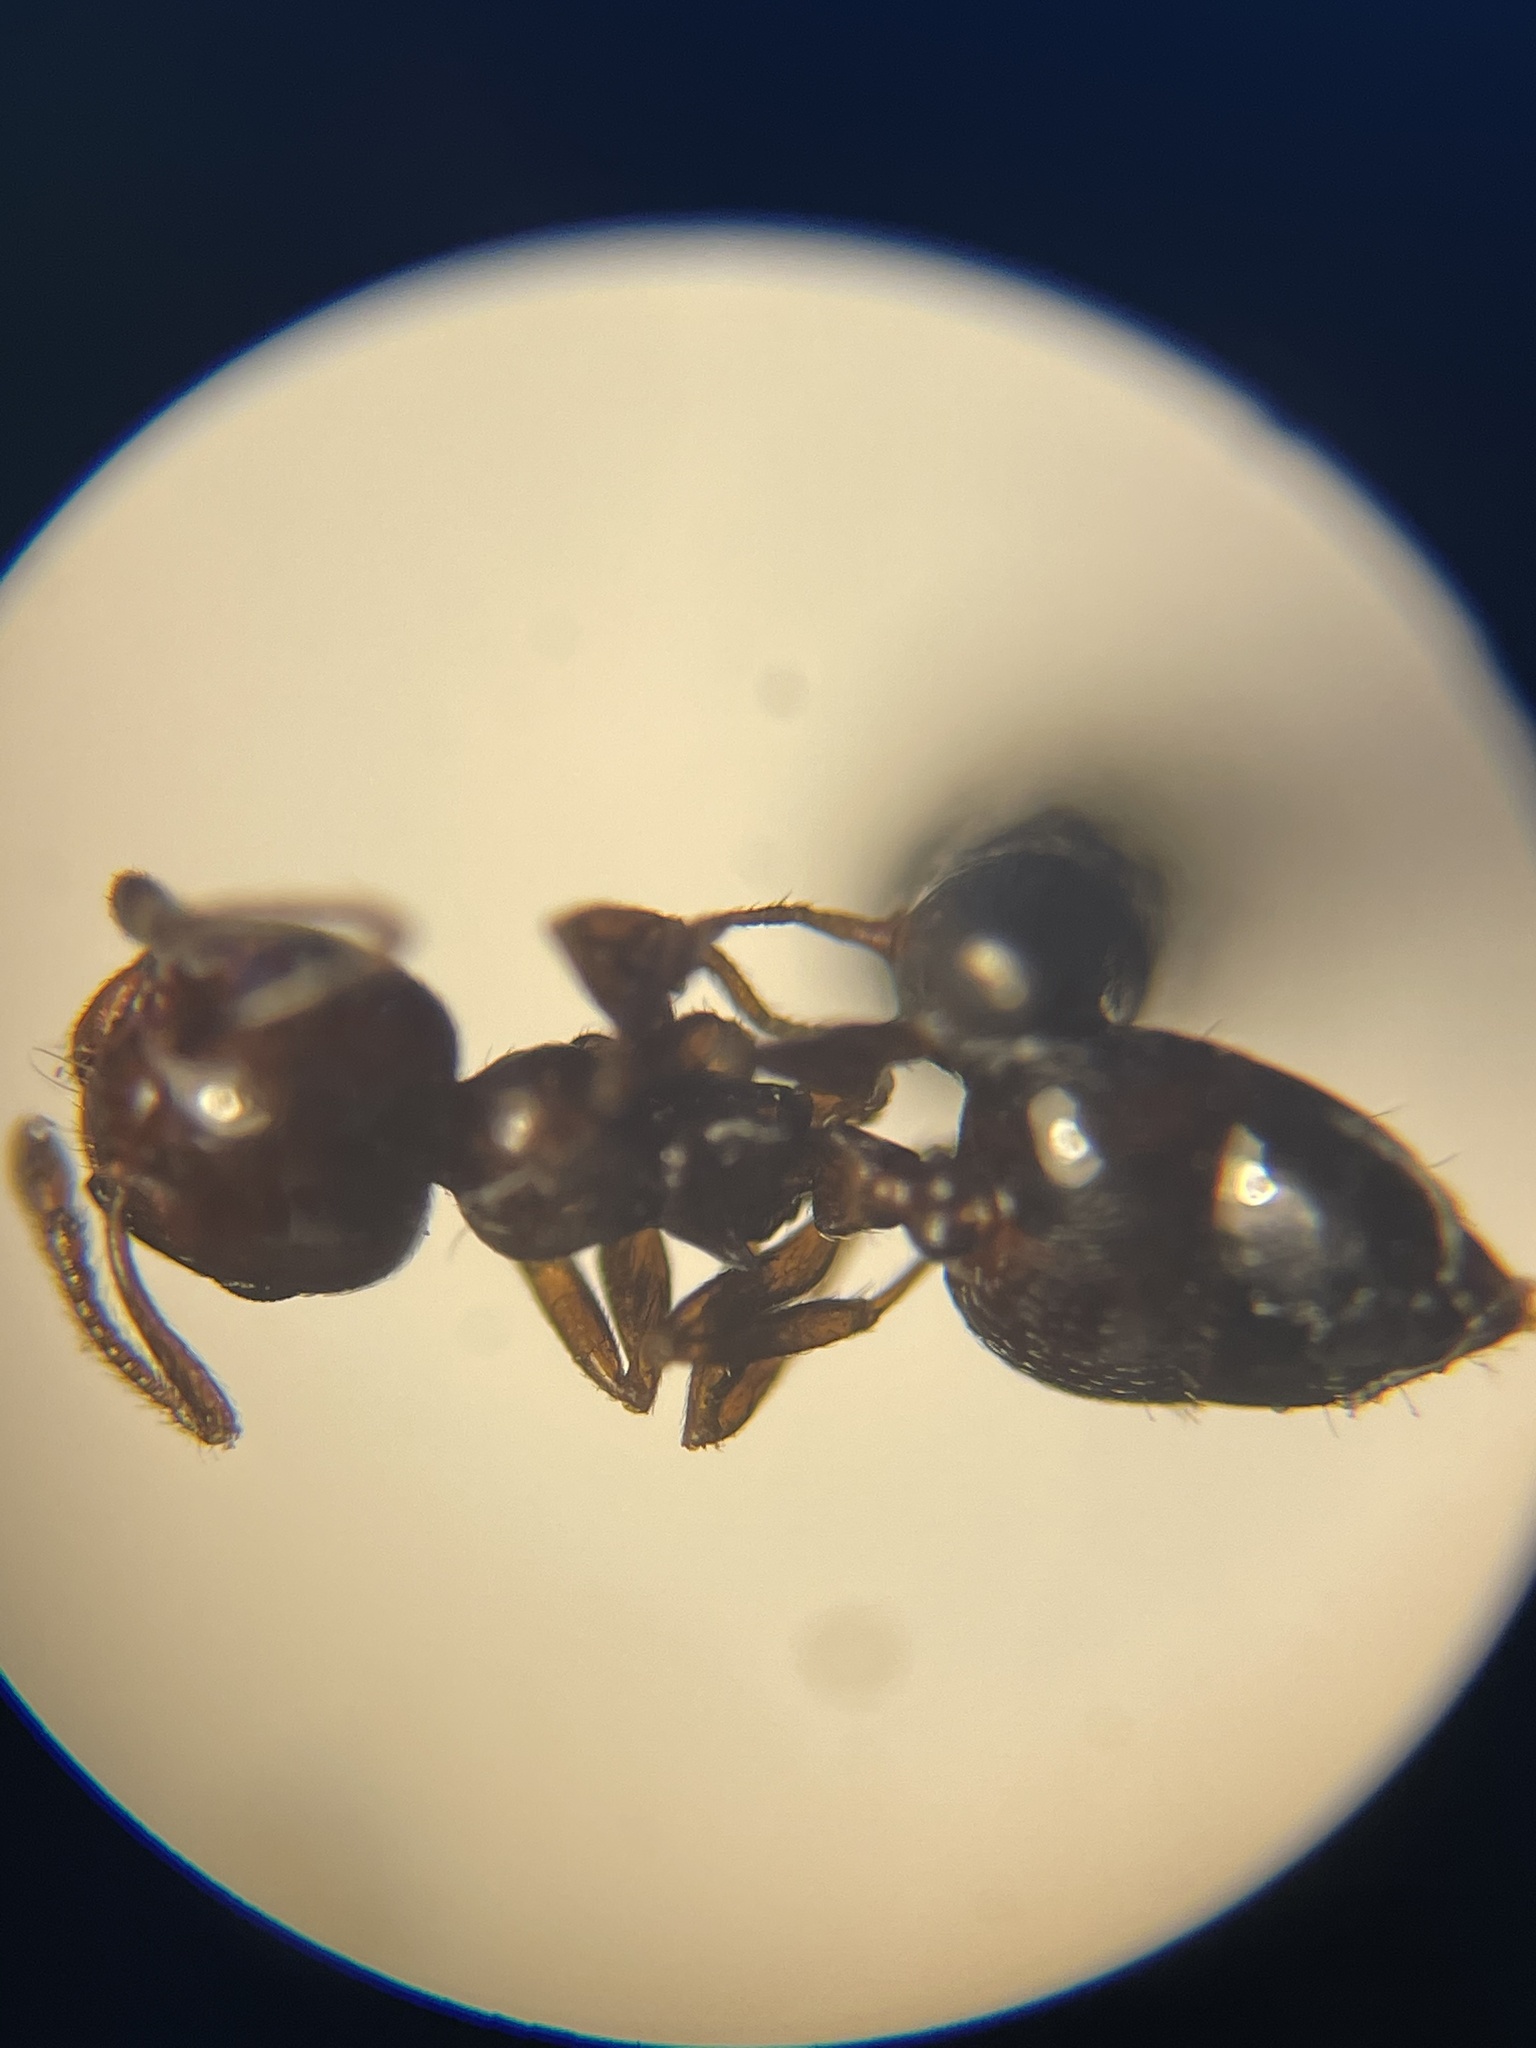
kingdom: Animalia
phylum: Arthropoda
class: Insecta
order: Hymenoptera
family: Formicidae
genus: Crematogaster
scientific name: Crematogaster ashmeadi
